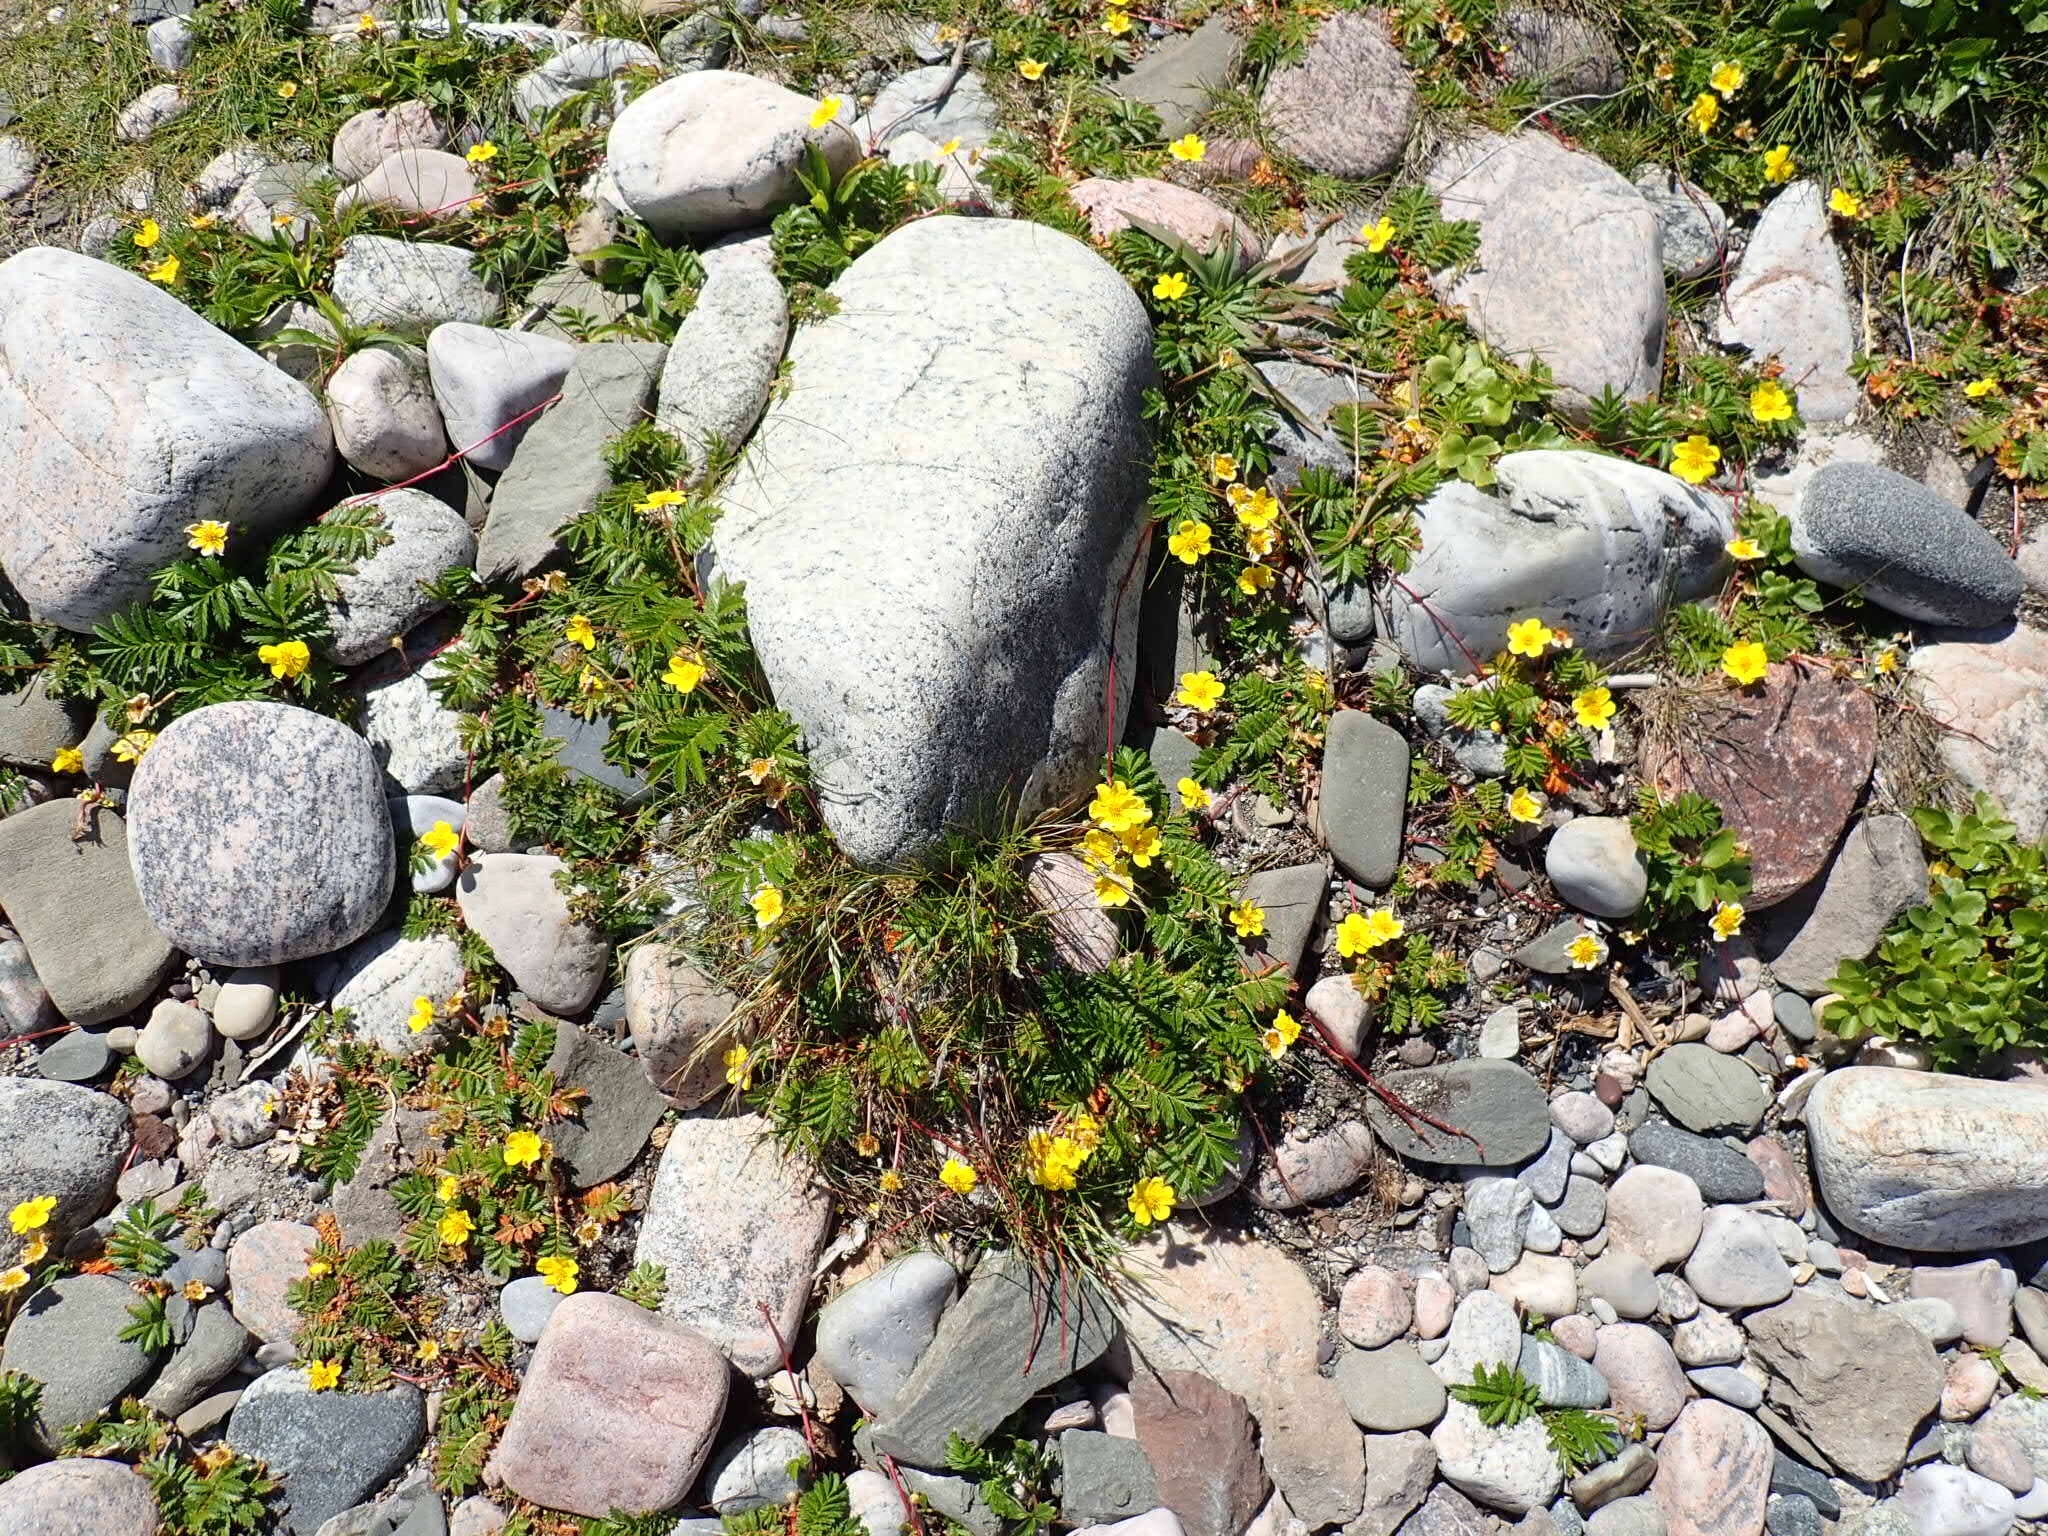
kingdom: Plantae
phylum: Tracheophyta
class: Magnoliopsida
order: Rosales
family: Rosaceae
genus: Argentina
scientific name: Argentina anserina
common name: Common silverweed
